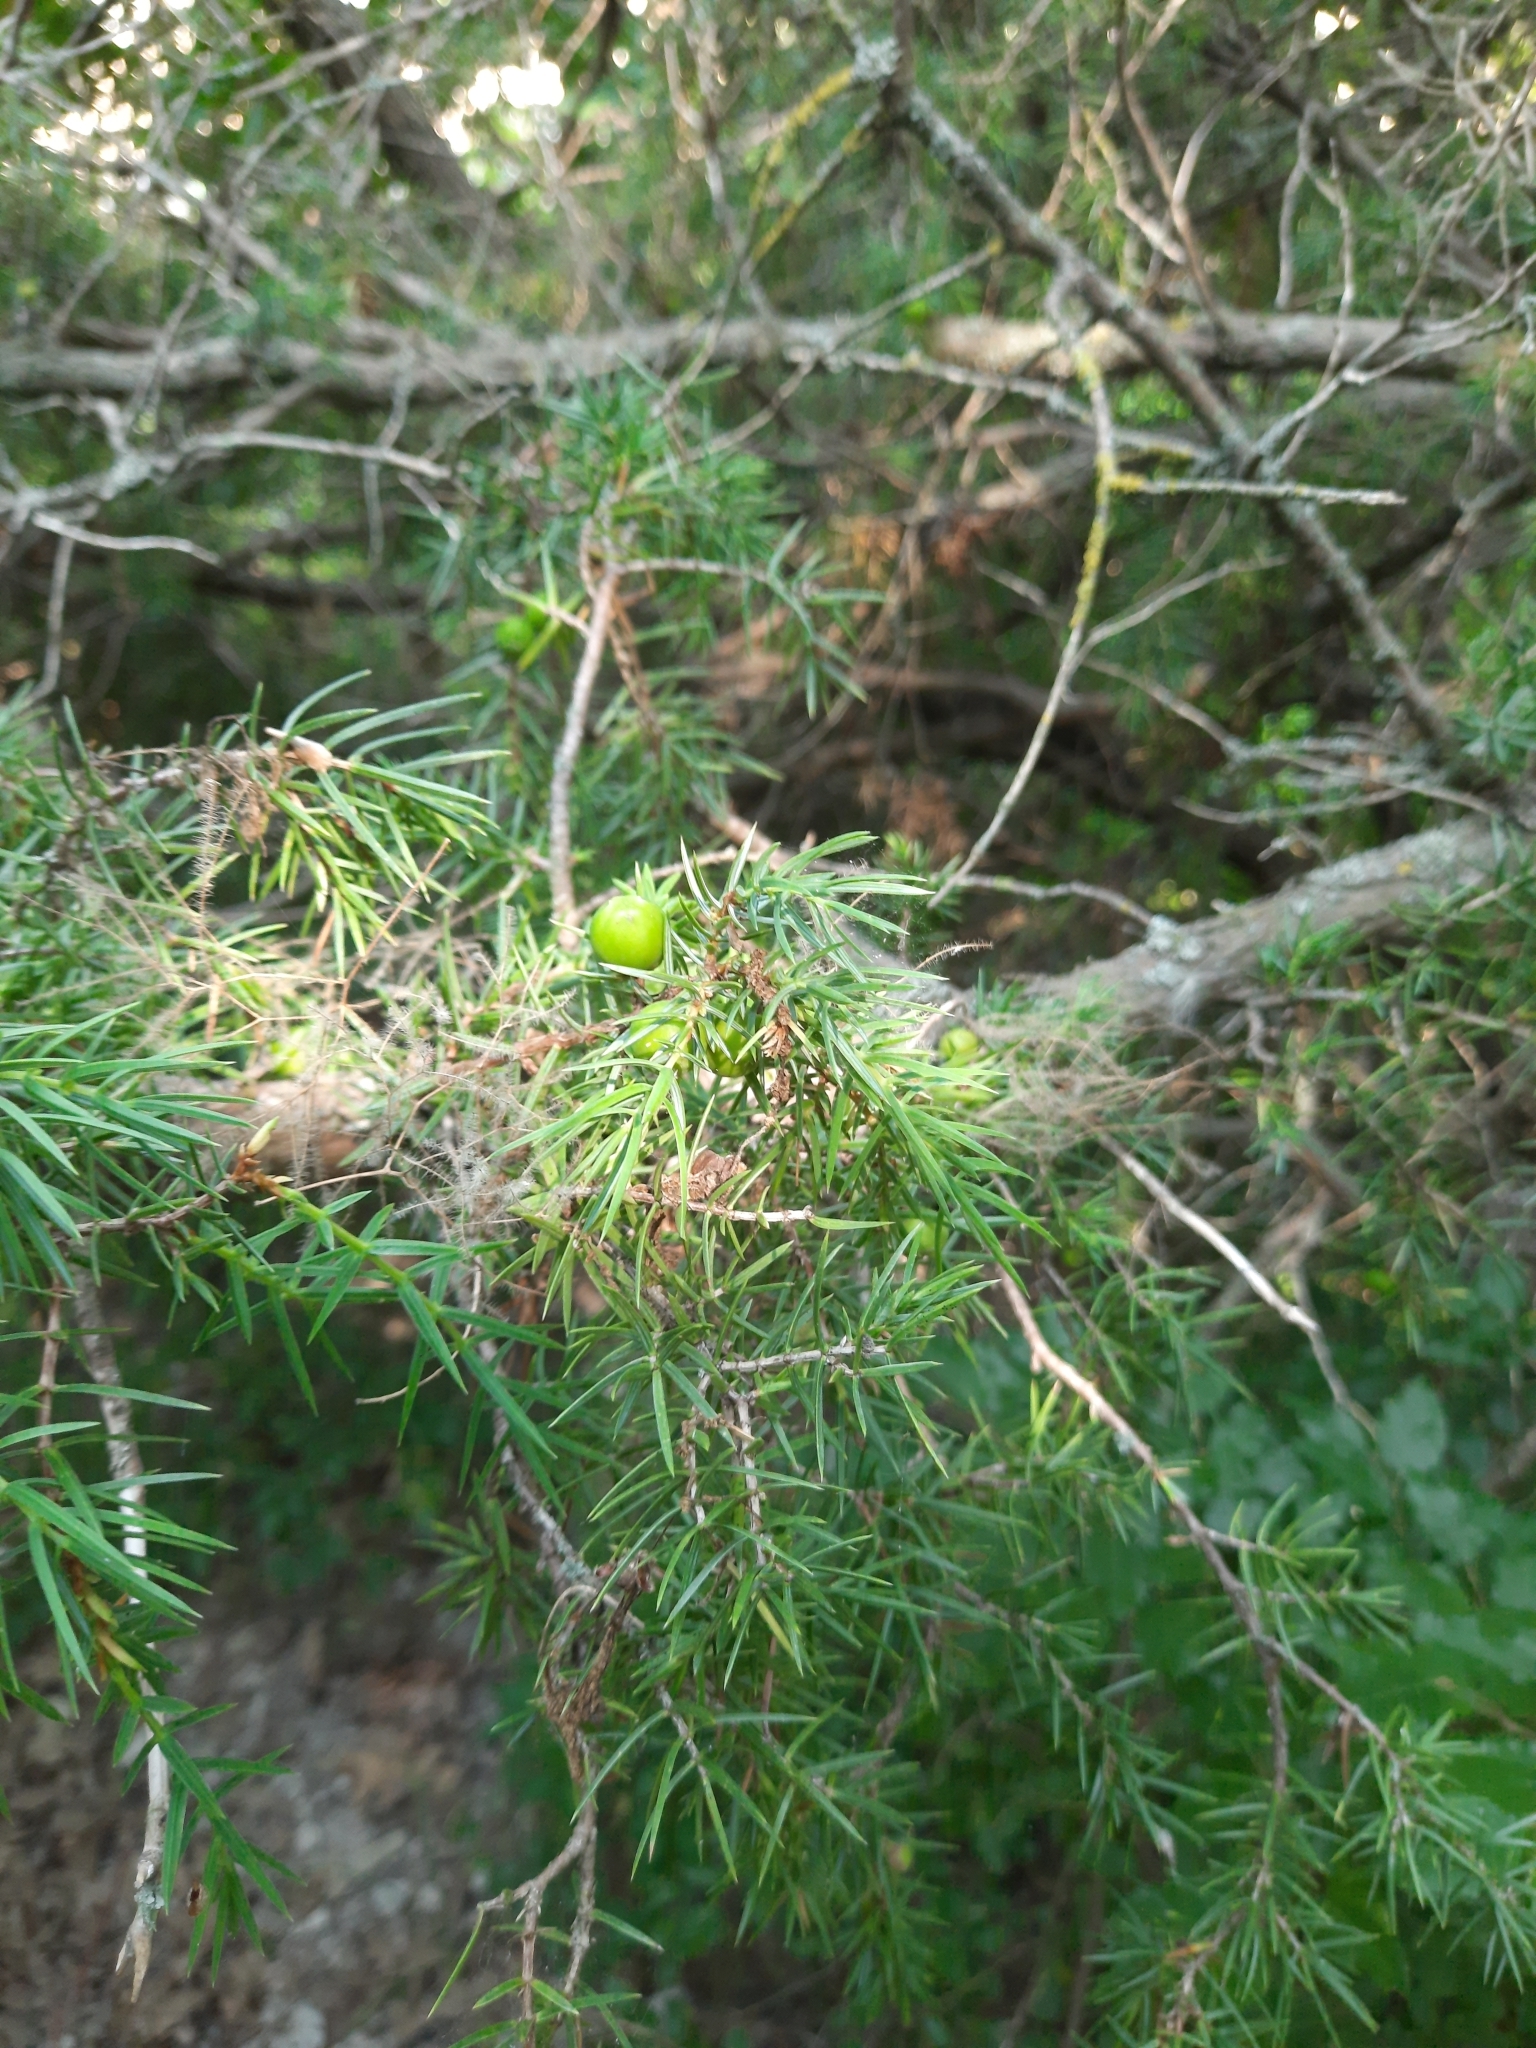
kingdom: Plantae
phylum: Tracheophyta
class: Pinopsida
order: Pinales
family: Cupressaceae
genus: Juniperus
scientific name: Juniperus oxycedrus
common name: Prickly juniper
